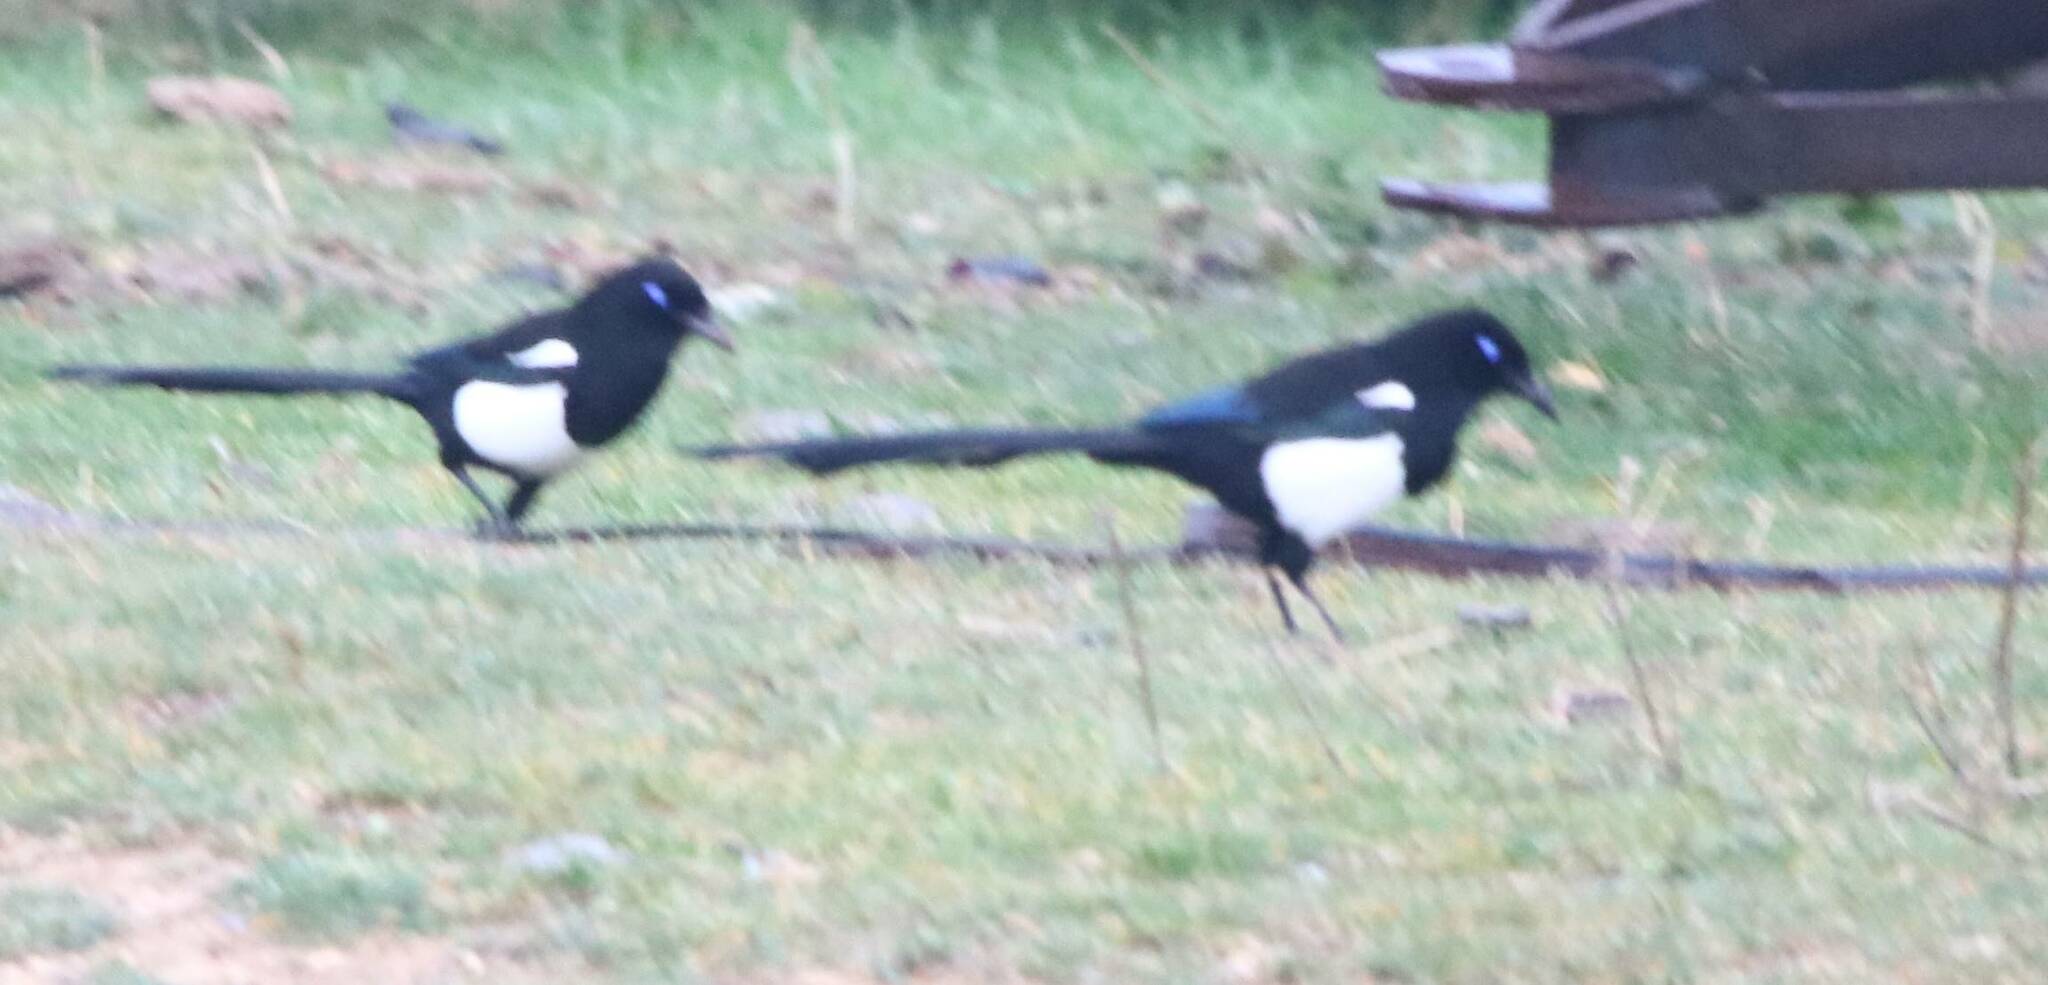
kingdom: Animalia
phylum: Chordata
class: Aves
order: Passeriformes
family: Corvidae
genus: Pica
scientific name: Pica mauritanica
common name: Maghreb magpie
